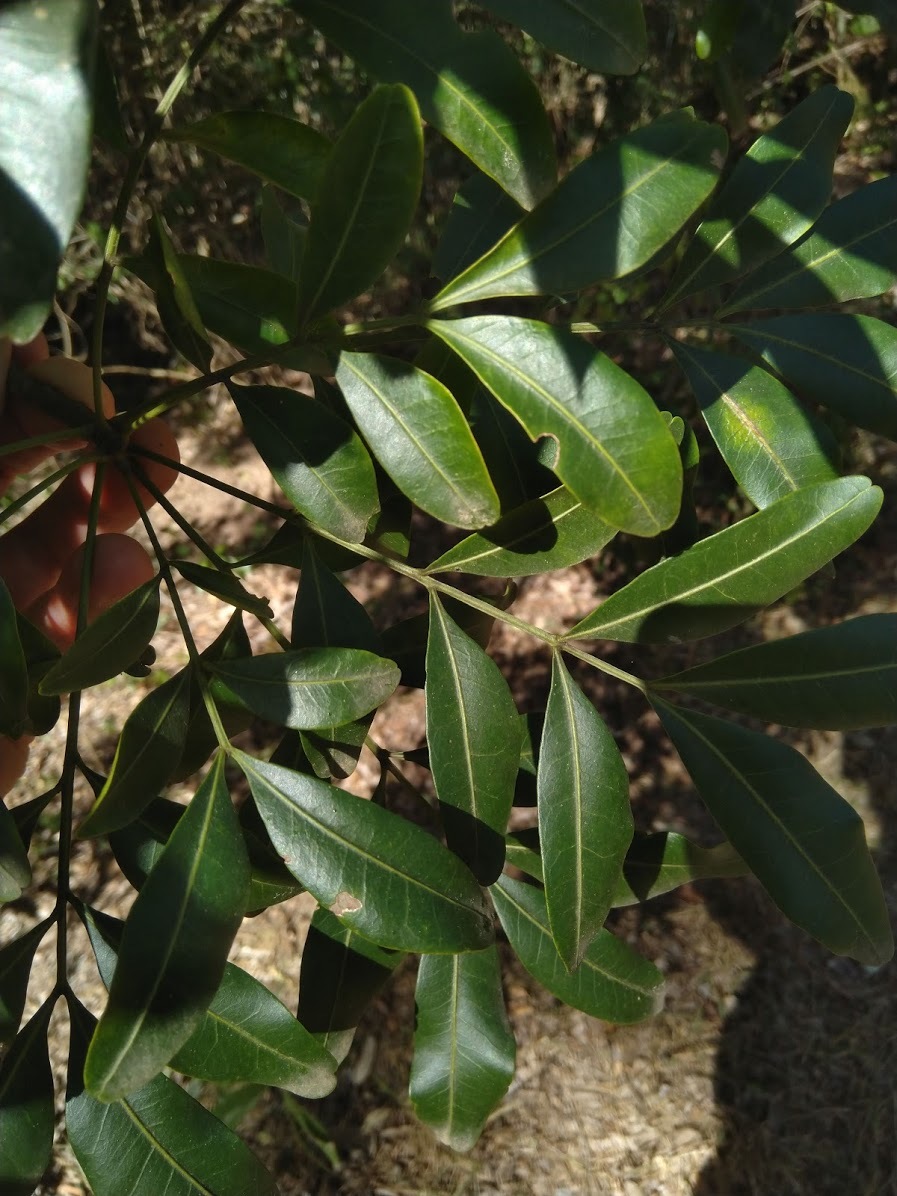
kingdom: Plantae
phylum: Tracheophyta
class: Magnoliopsida
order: Sapindales
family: Meliaceae
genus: Owenia
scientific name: Owenia venosa
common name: Crow's-apple
